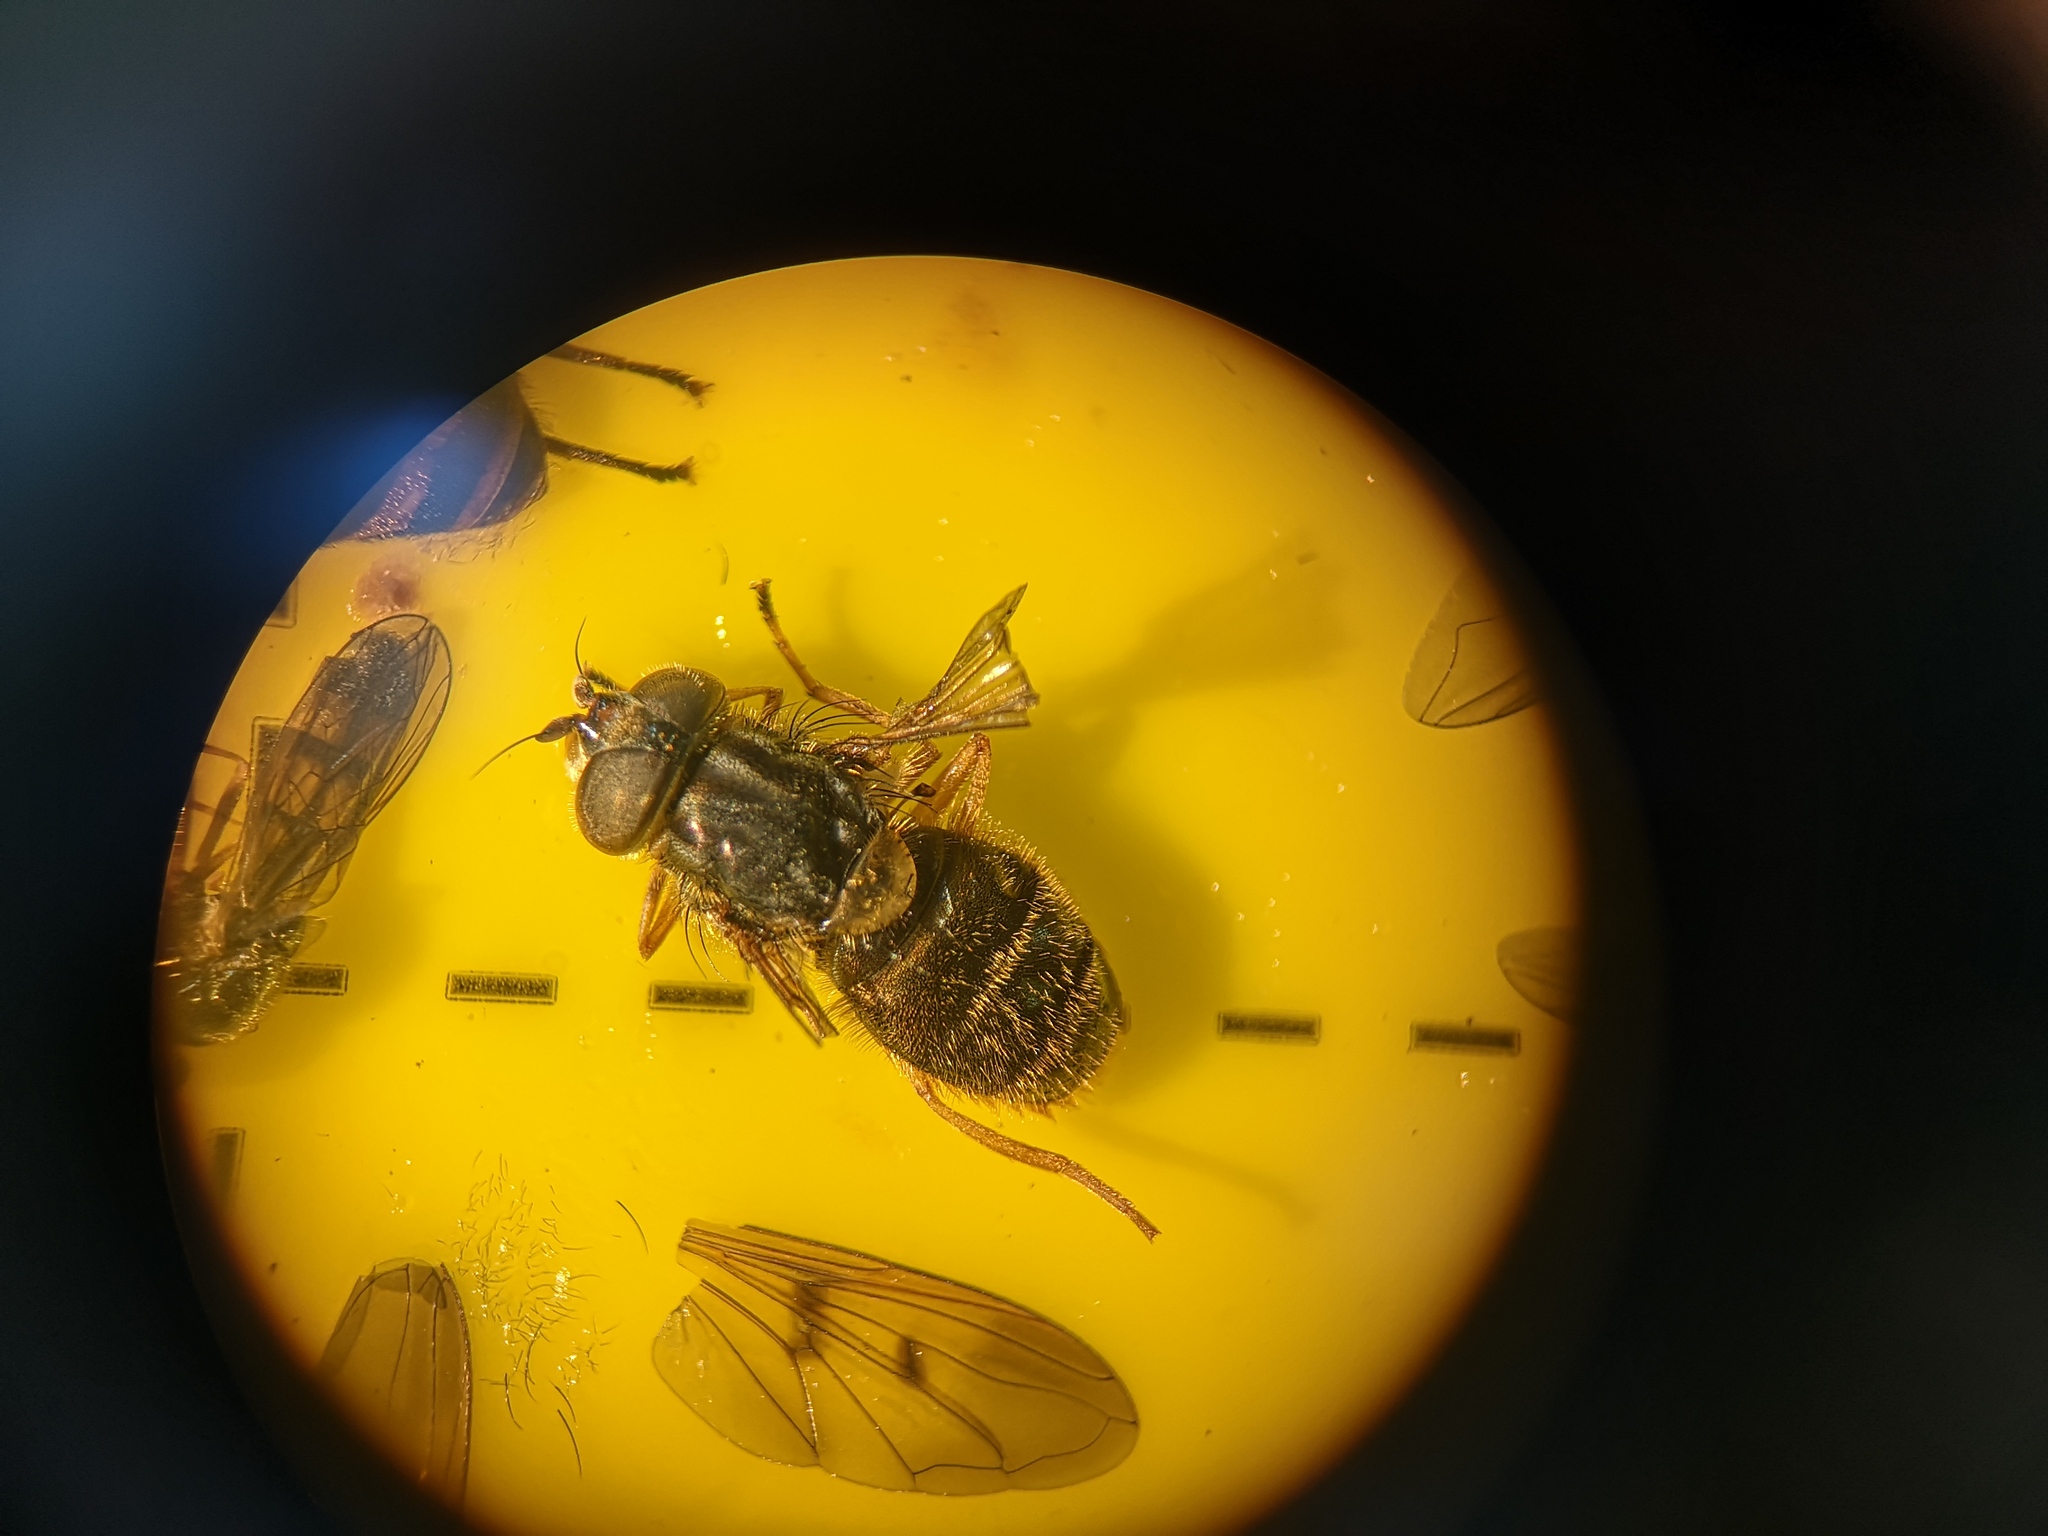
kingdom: Animalia
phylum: Arthropoda
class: Insecta
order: Diptera
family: Syrphidae
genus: Ferdinandea
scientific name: Ferdinandea cuprea
